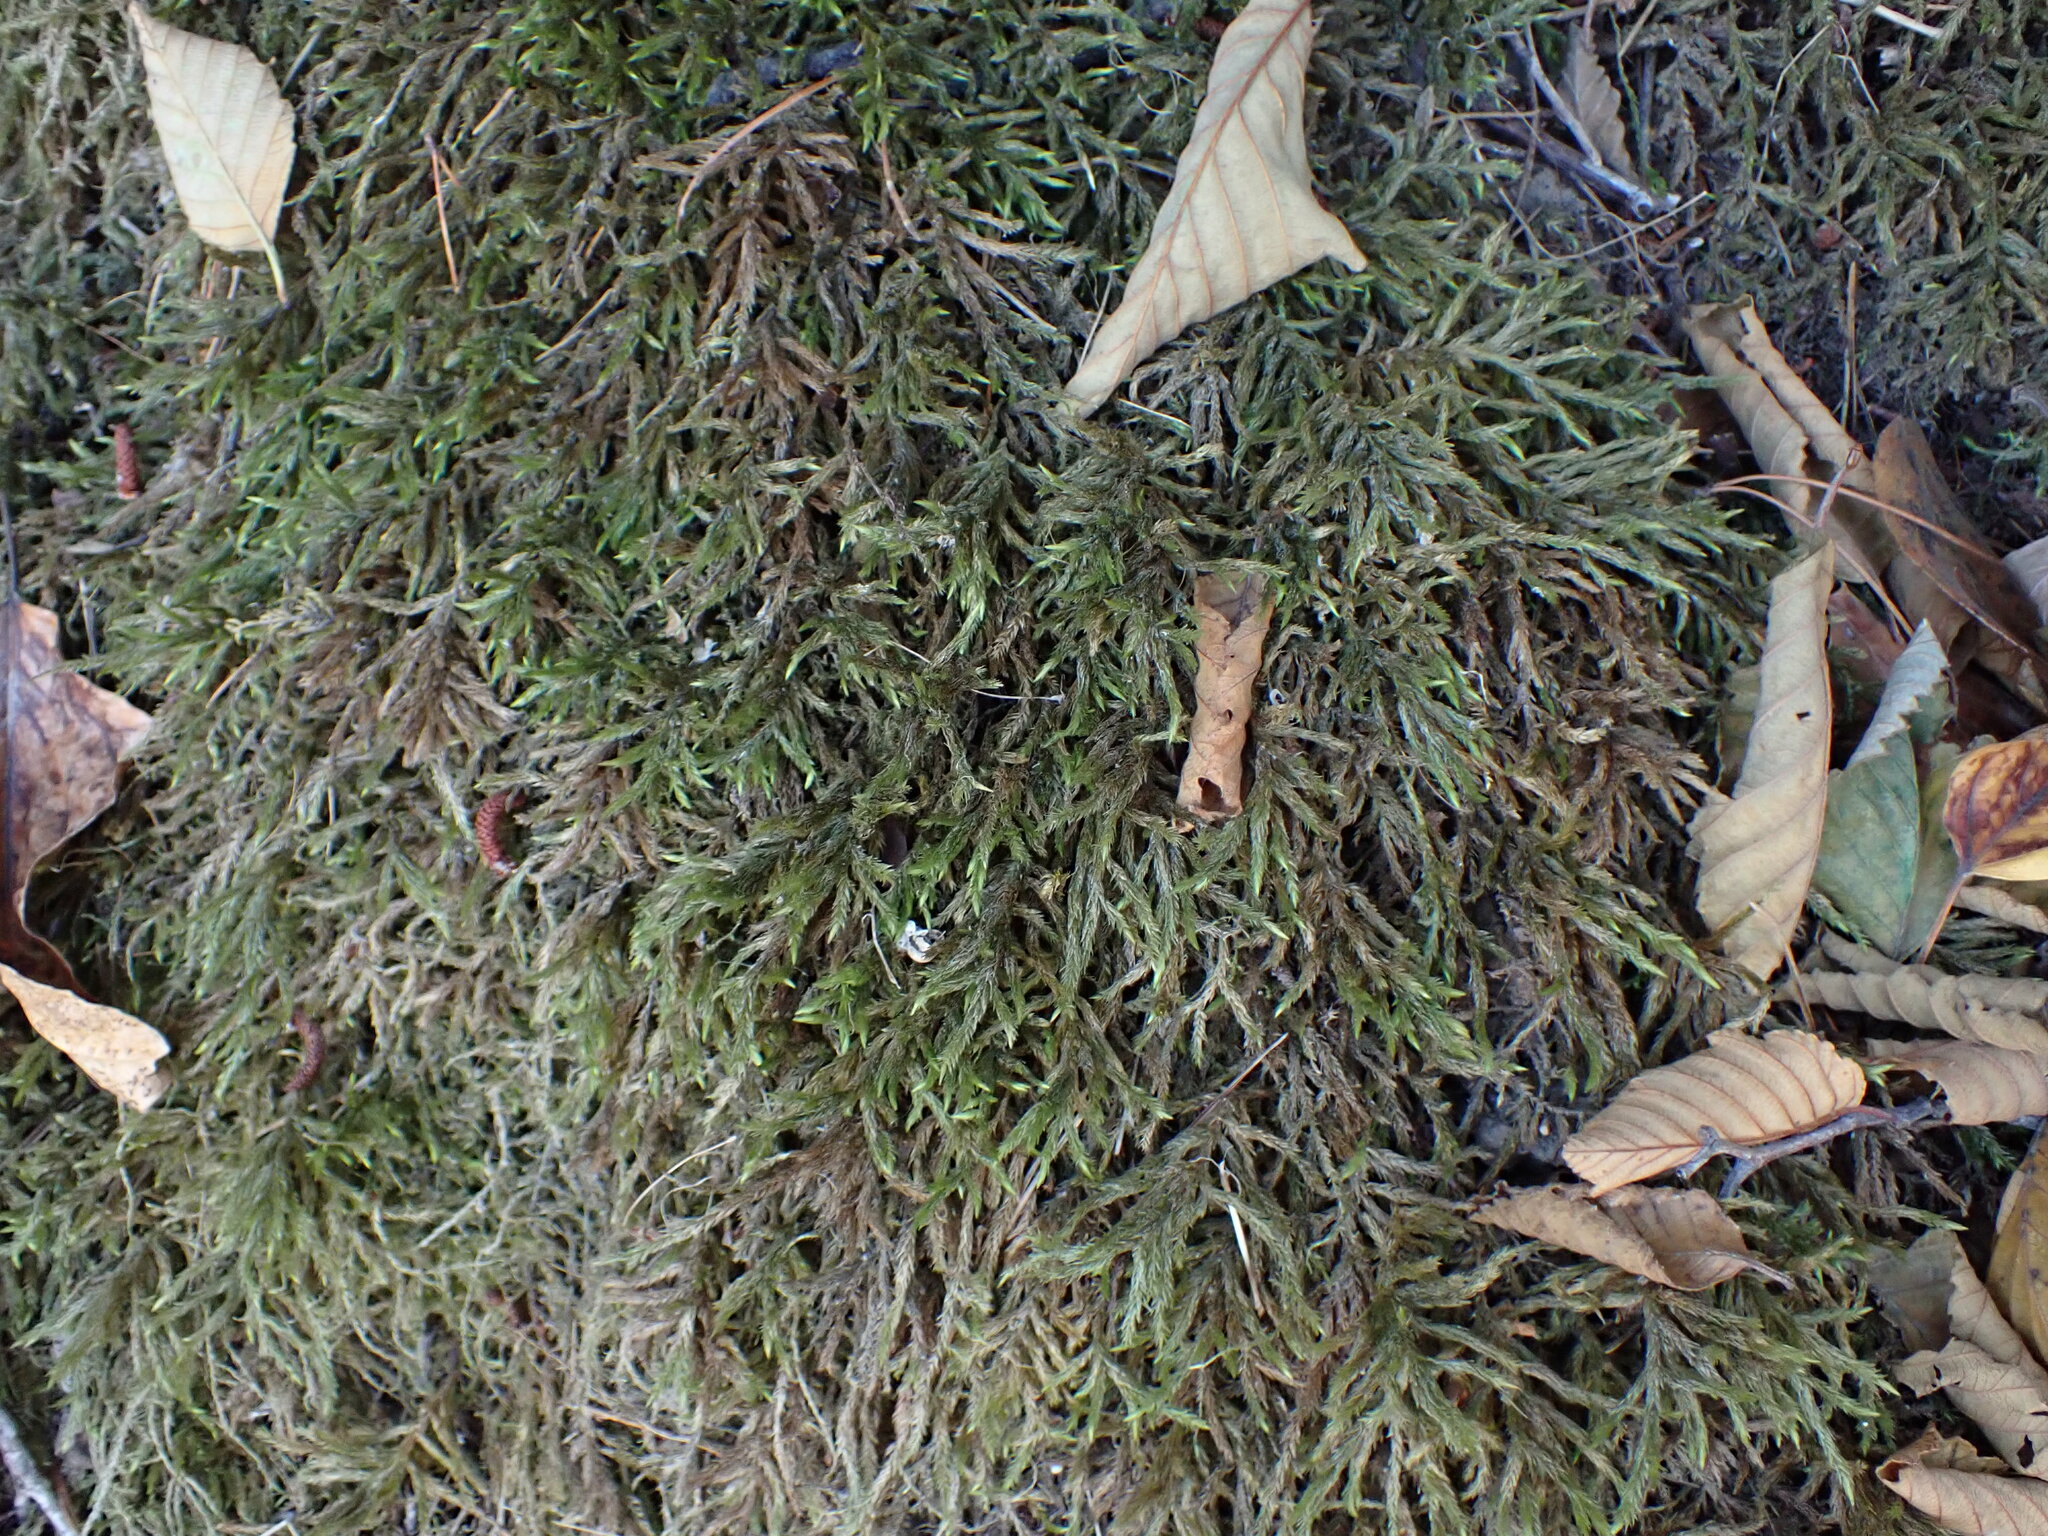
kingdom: Plantae
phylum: Bryophyta
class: Bryopsida
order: Hypnales
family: Climaciaceae
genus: Climacium
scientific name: Climacium dendroides
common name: Northern tree moss
